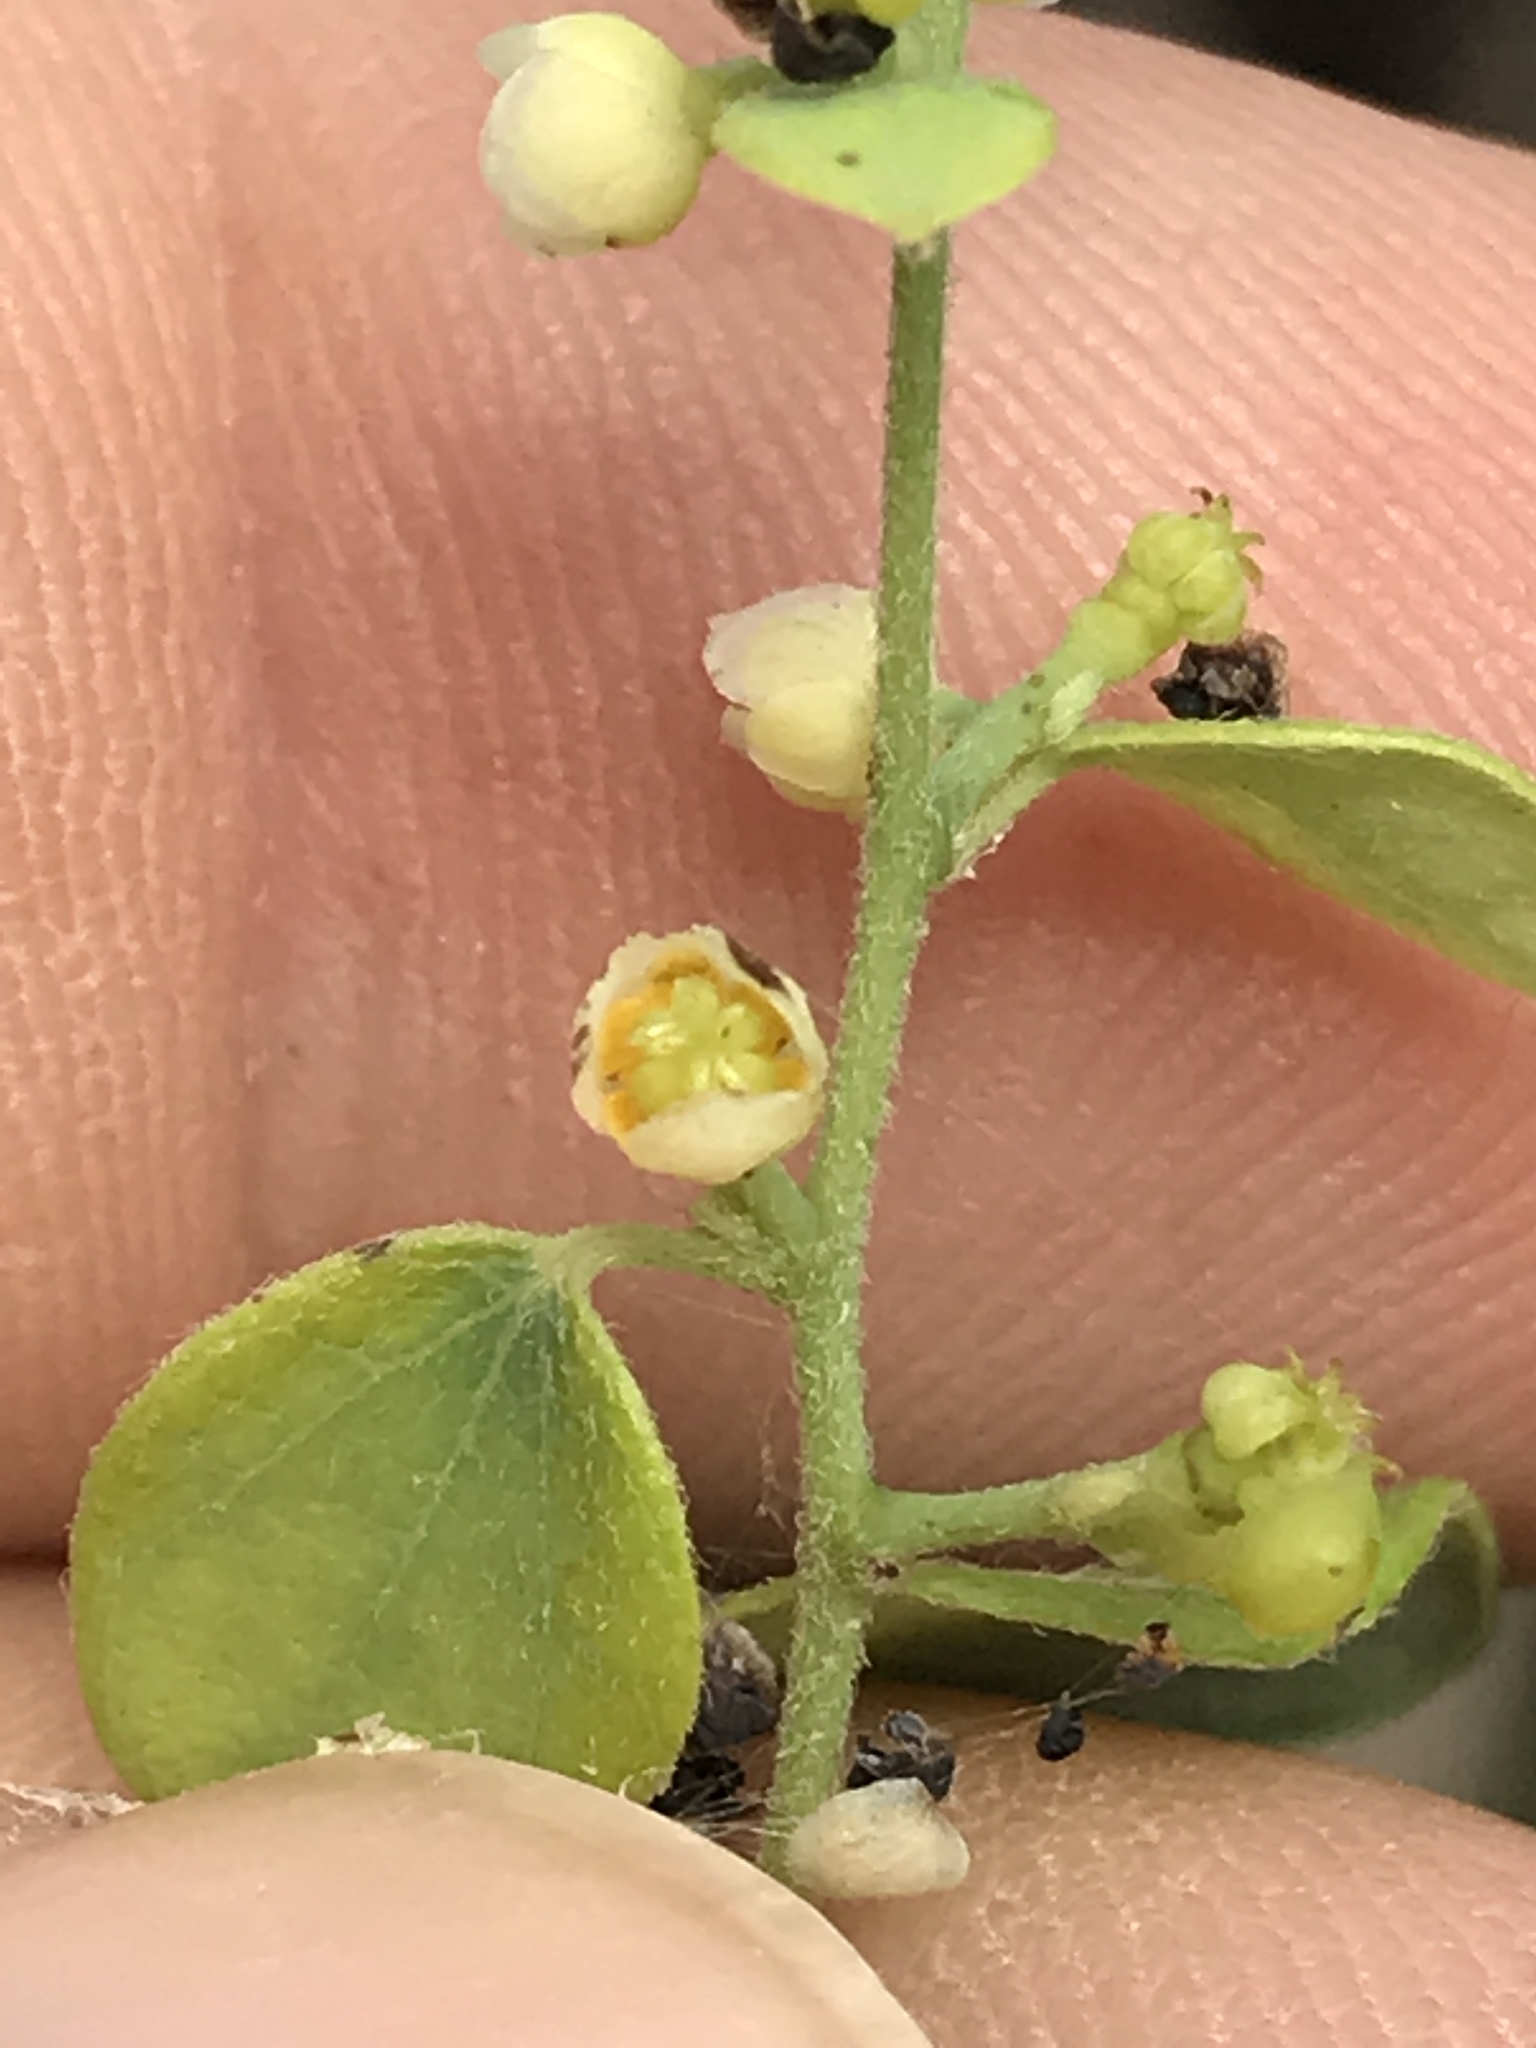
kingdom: Plantae
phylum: Tracheophyta
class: Magnoliopsida
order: Ranunculales
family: Menispermaceae
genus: Cocculus
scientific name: Cocculus carolinus
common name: Carolina moonseed
